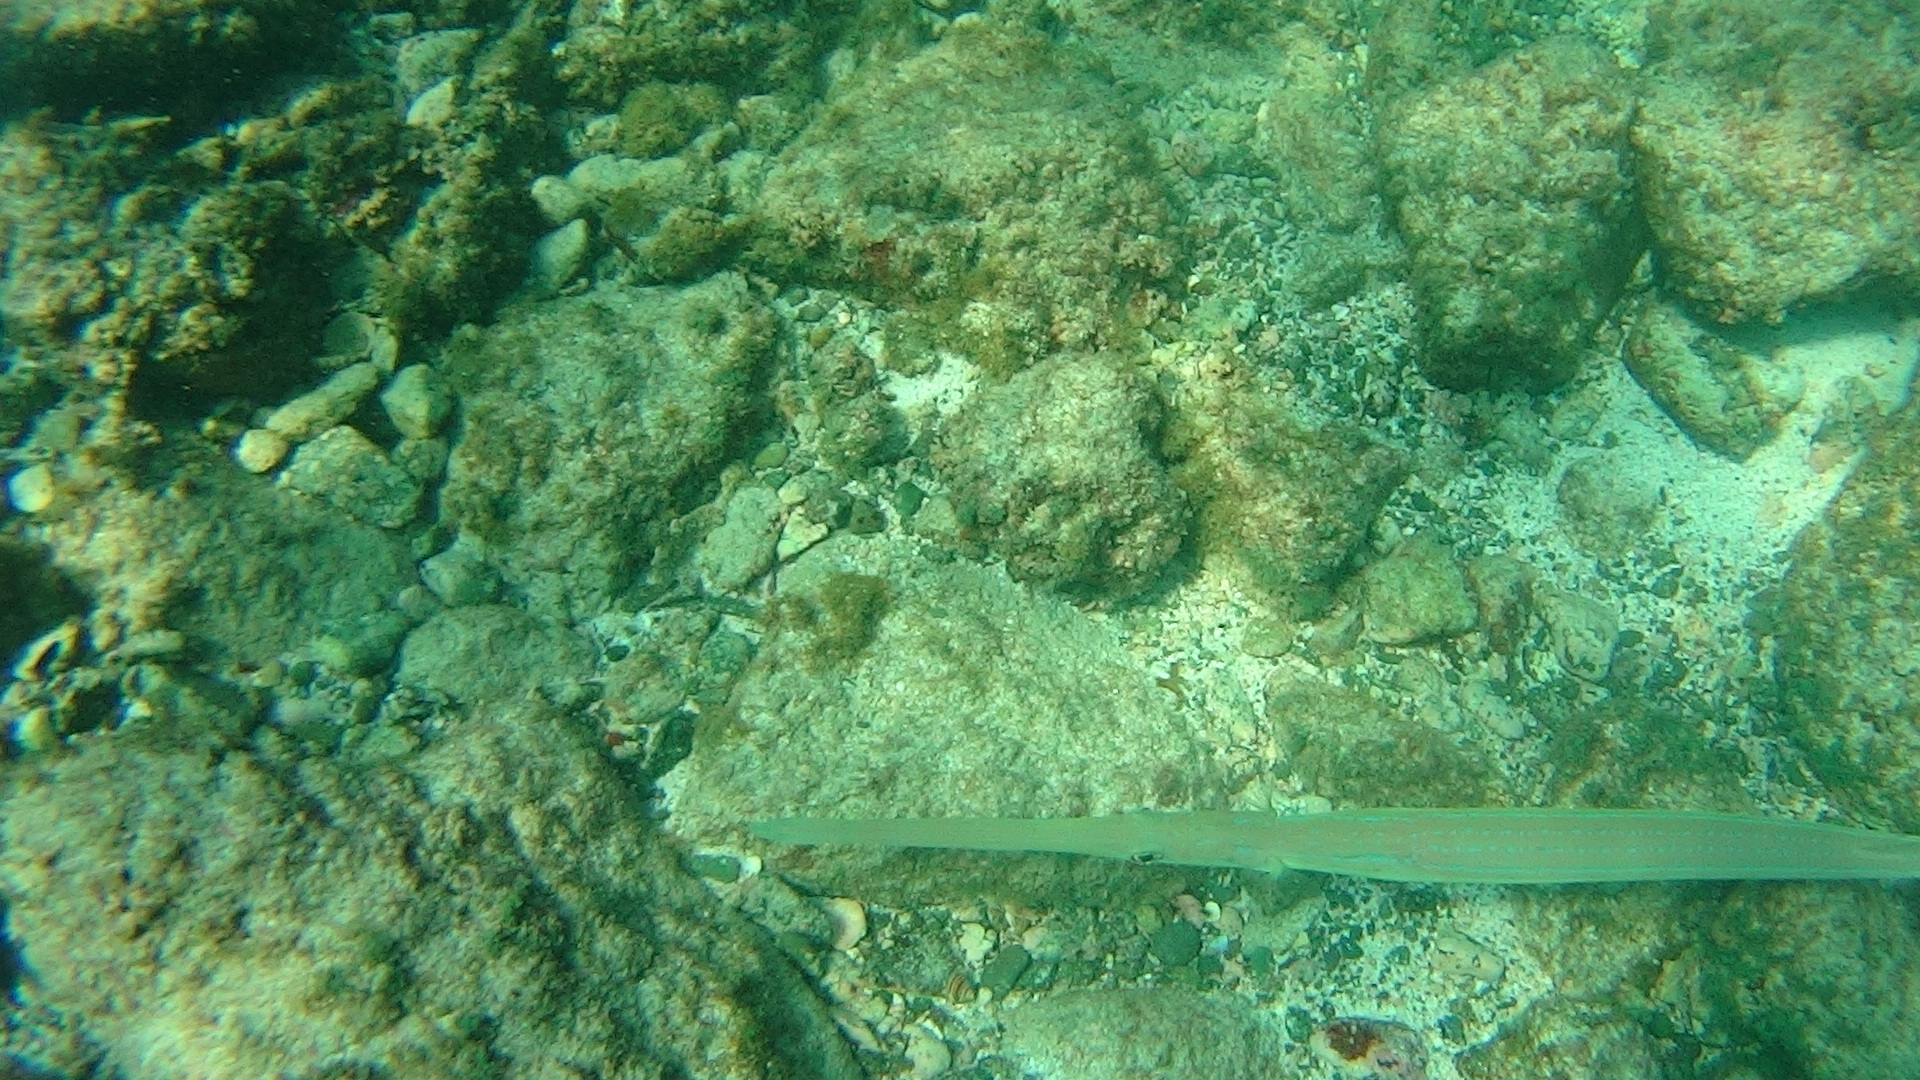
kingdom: Animalia
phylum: Chordata
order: Syngnathiformes
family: Fistulariidae
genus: Fistularia
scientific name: Fistularia commersonii
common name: Bluespotted cornetfish
